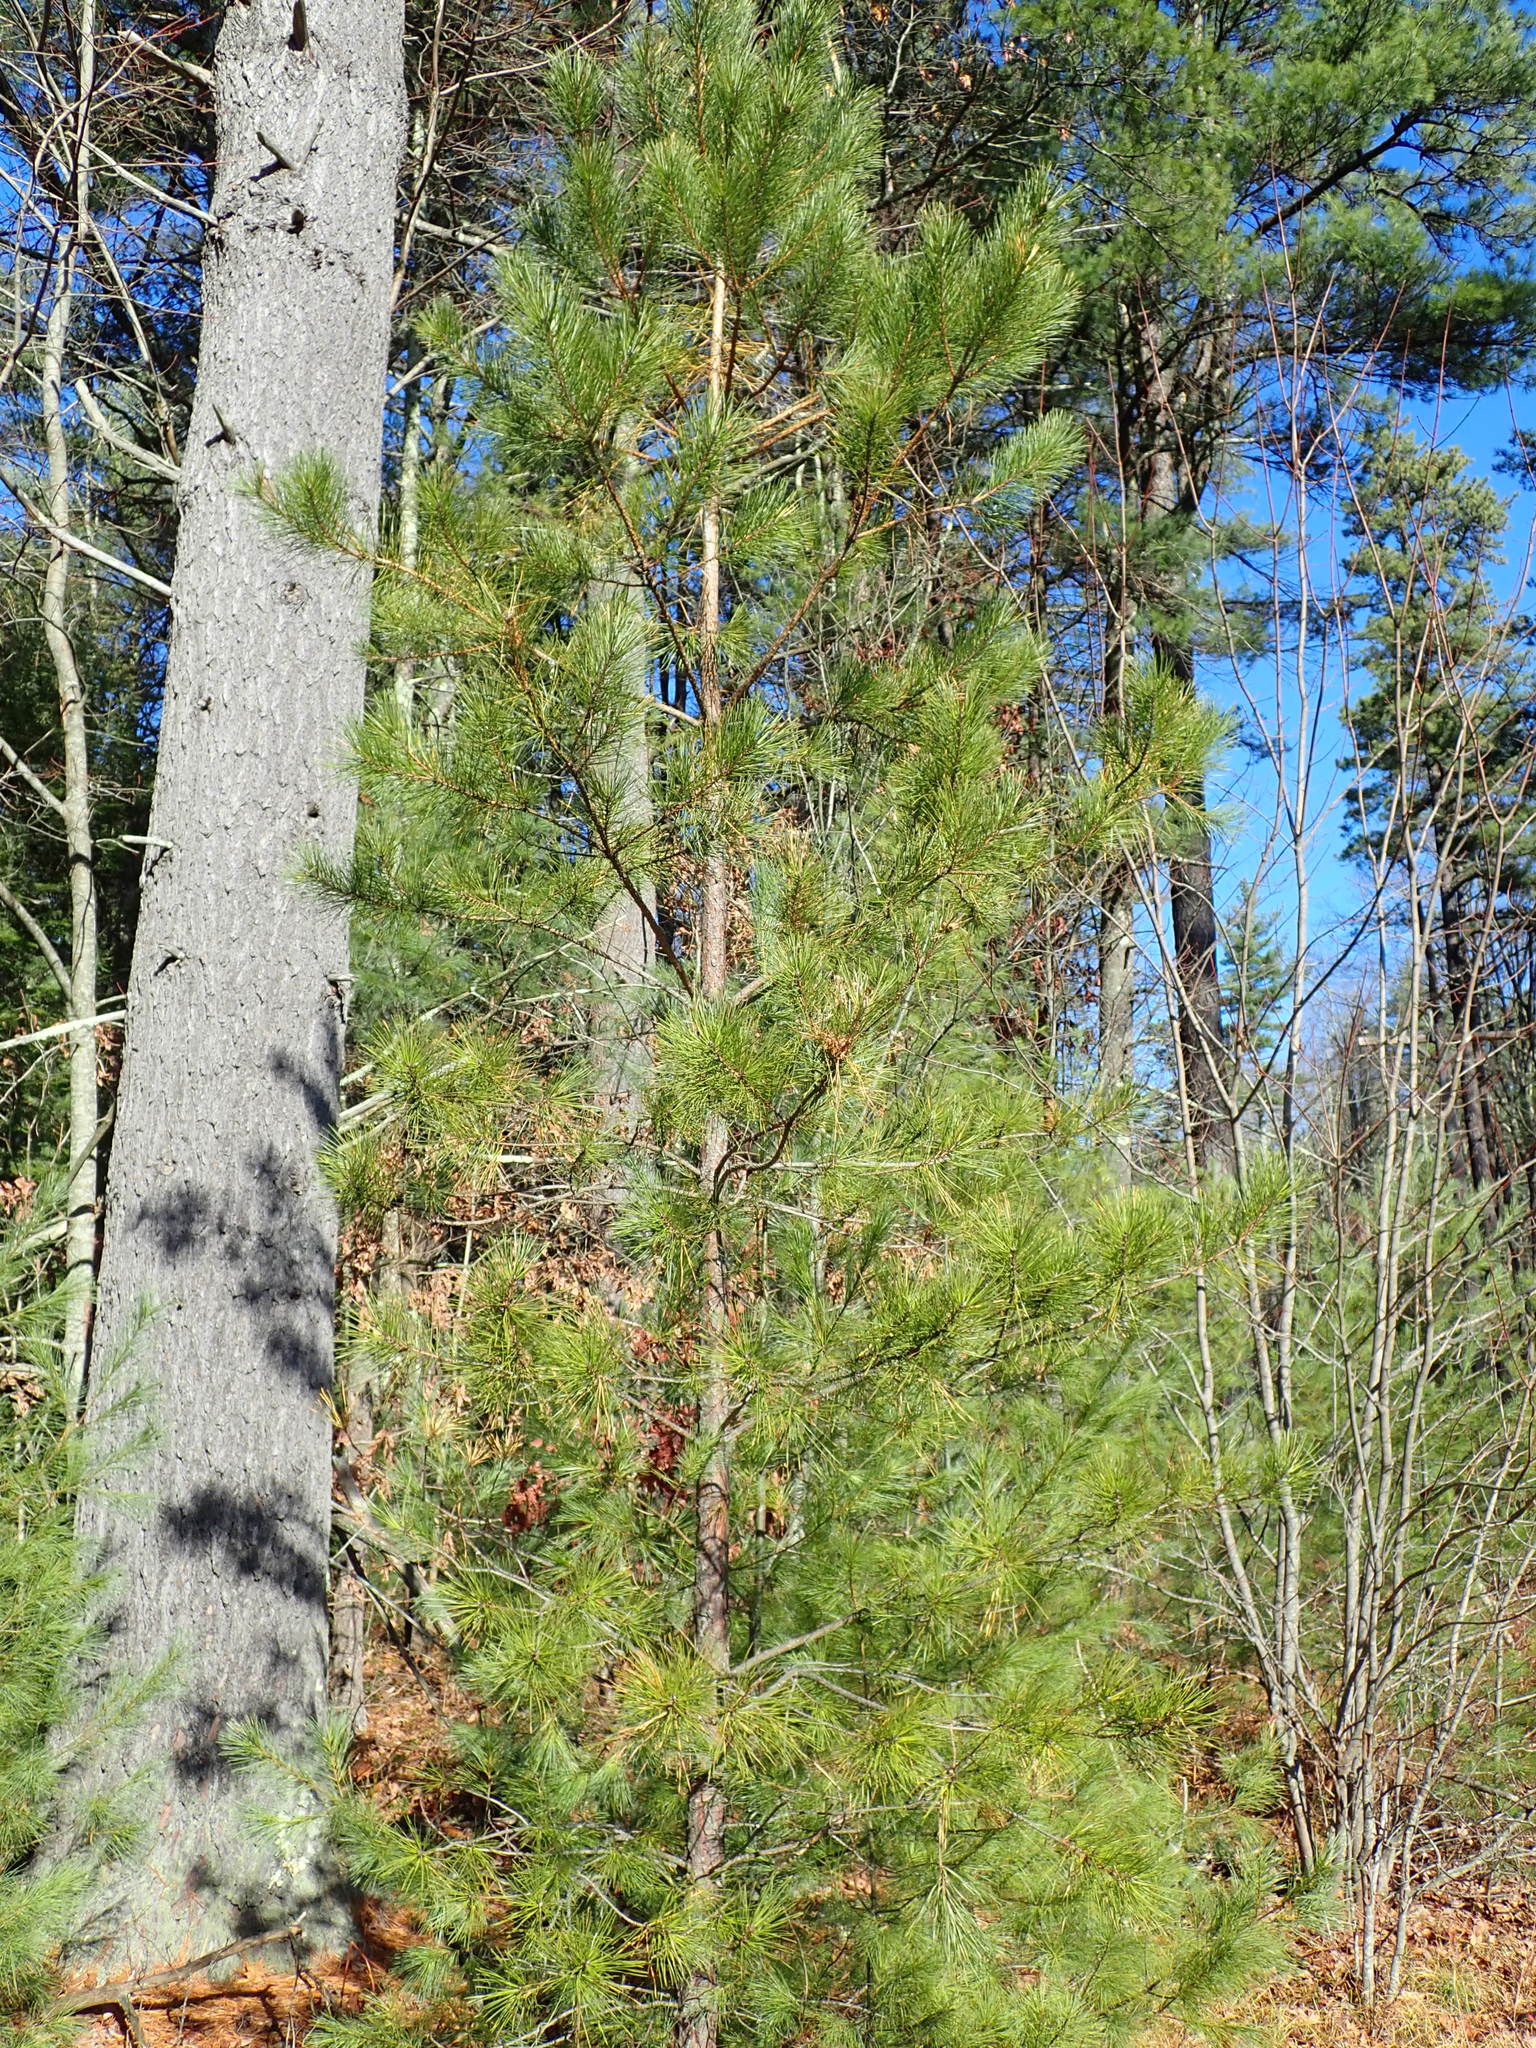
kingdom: Plantae
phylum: Tracheophyta
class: Pinopsida
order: Pinales
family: Pinaceae
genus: Pinus
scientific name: Pinus rigida
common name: Pitch pine
